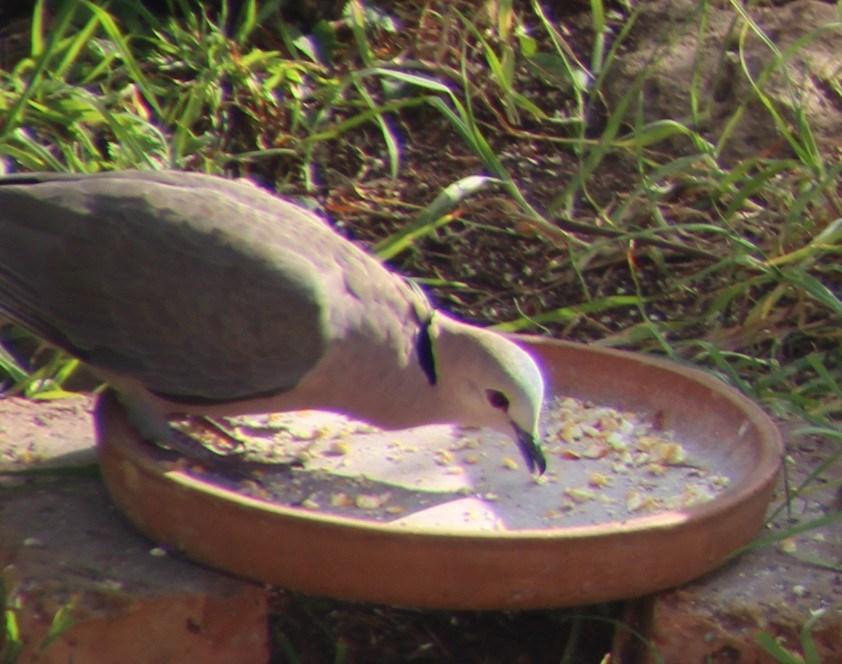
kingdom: Animalia
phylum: Chordata
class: Aves
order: Columbiformes
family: Columbidae
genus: Streptopelia
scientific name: Streptopelia semitorquata
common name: Red-eyed dove
